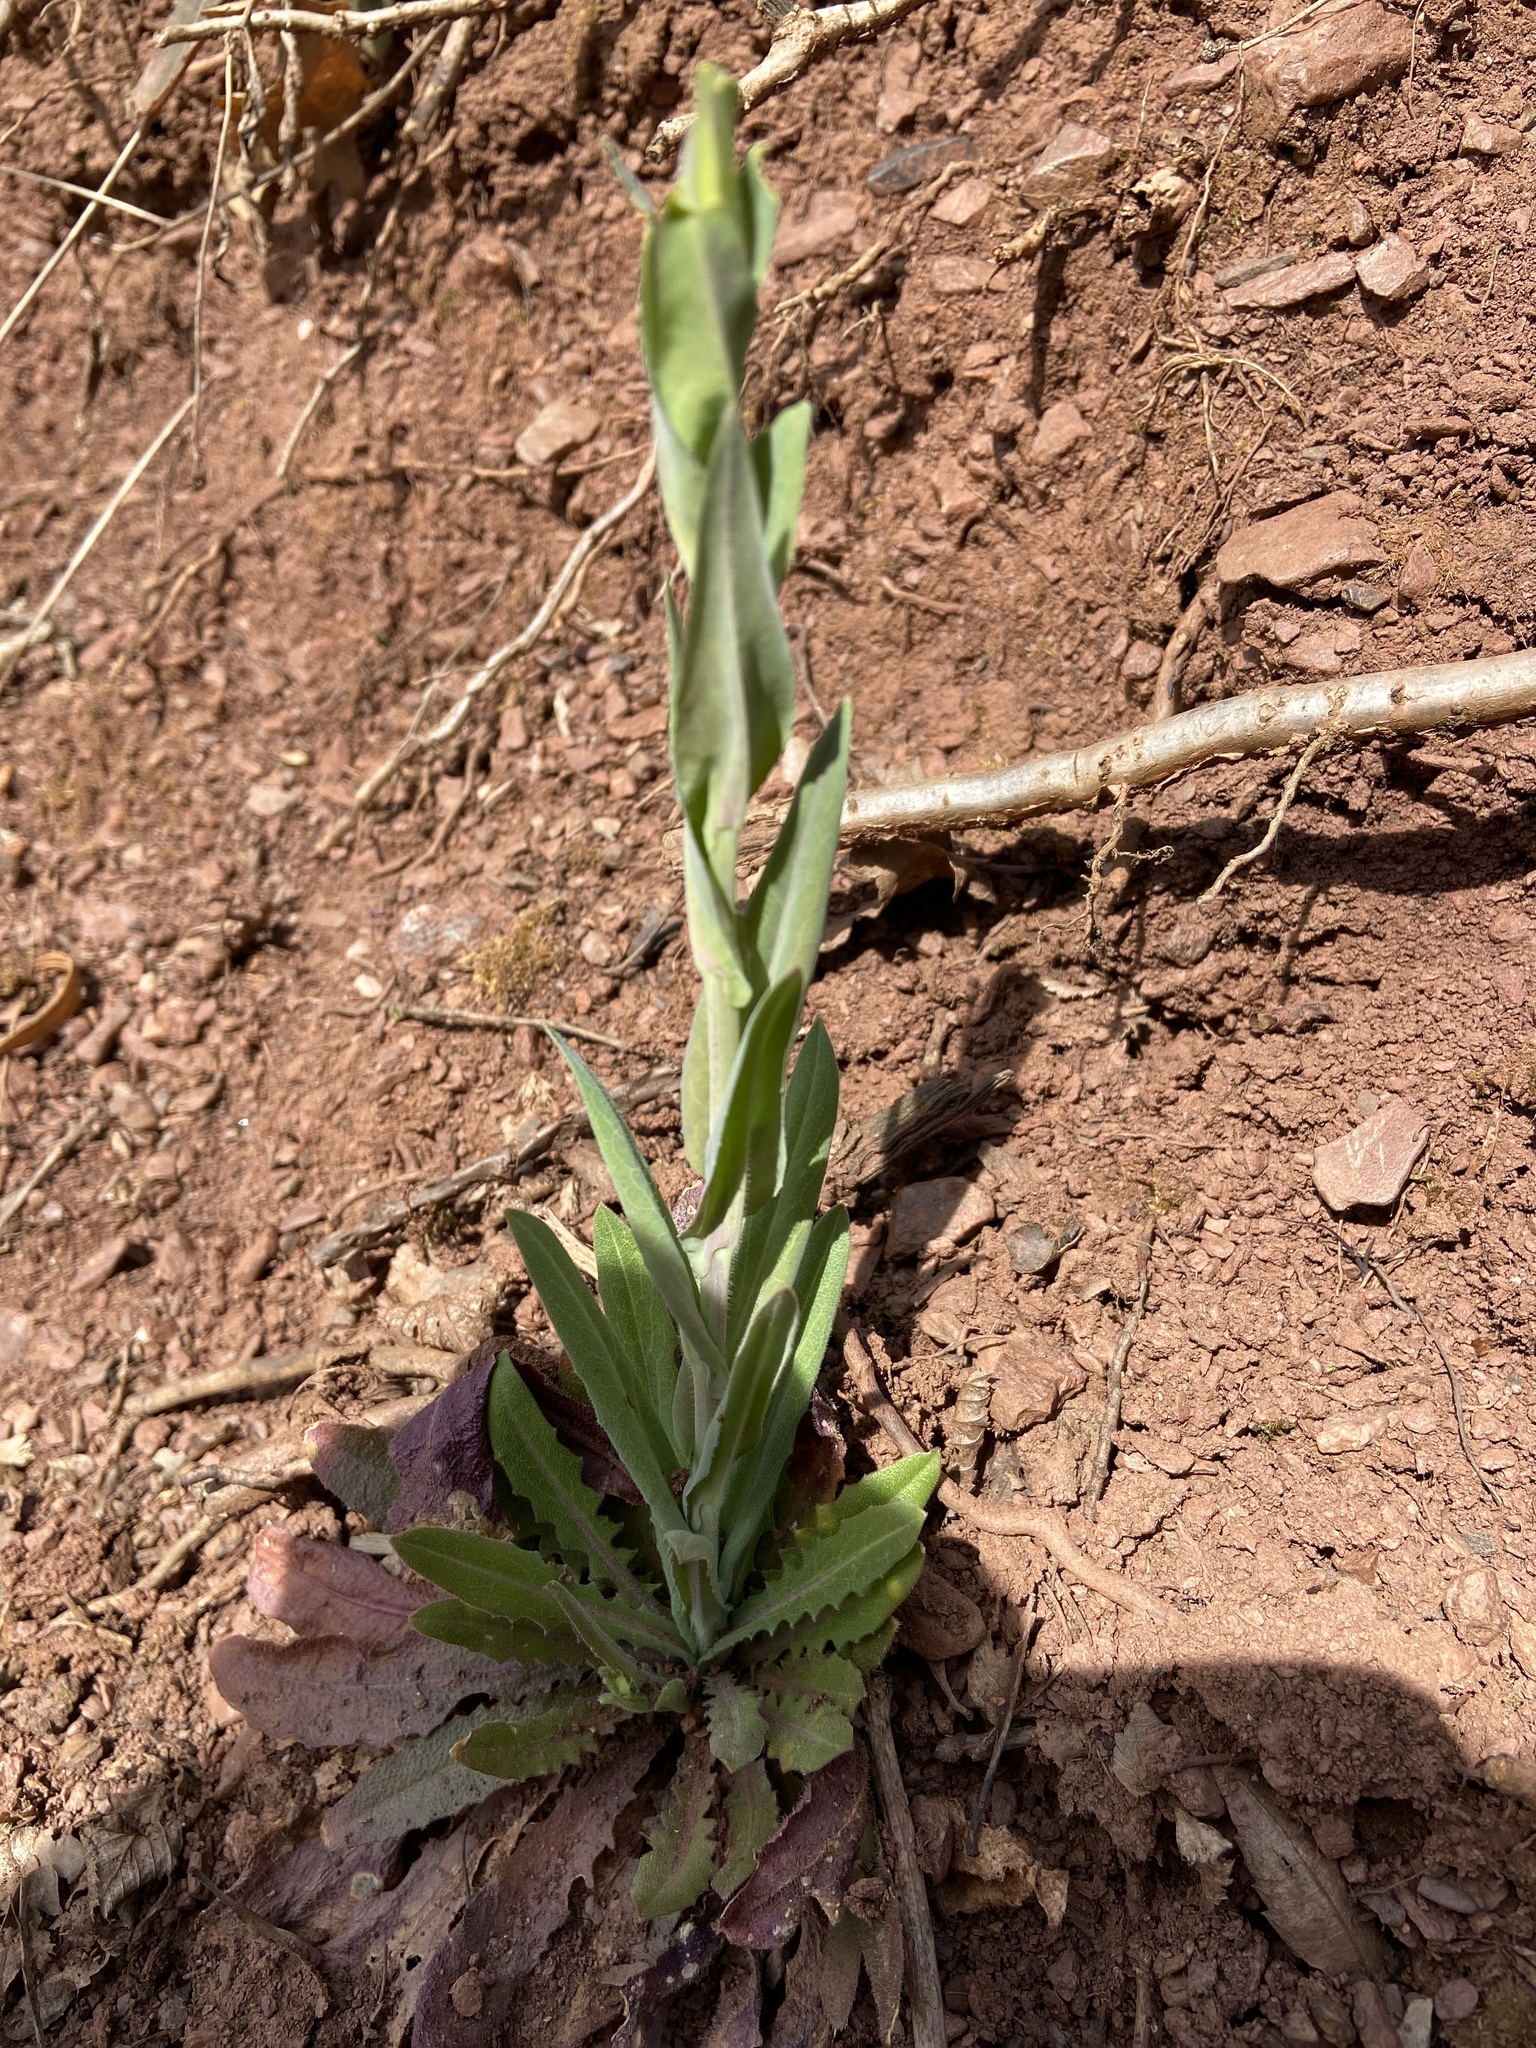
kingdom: Plantae
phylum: Tracheophyta
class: Magnoliopsida
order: Brassicales
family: Brassicaceae
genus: Turritis
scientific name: Turritis glabra
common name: Tower rockcress
